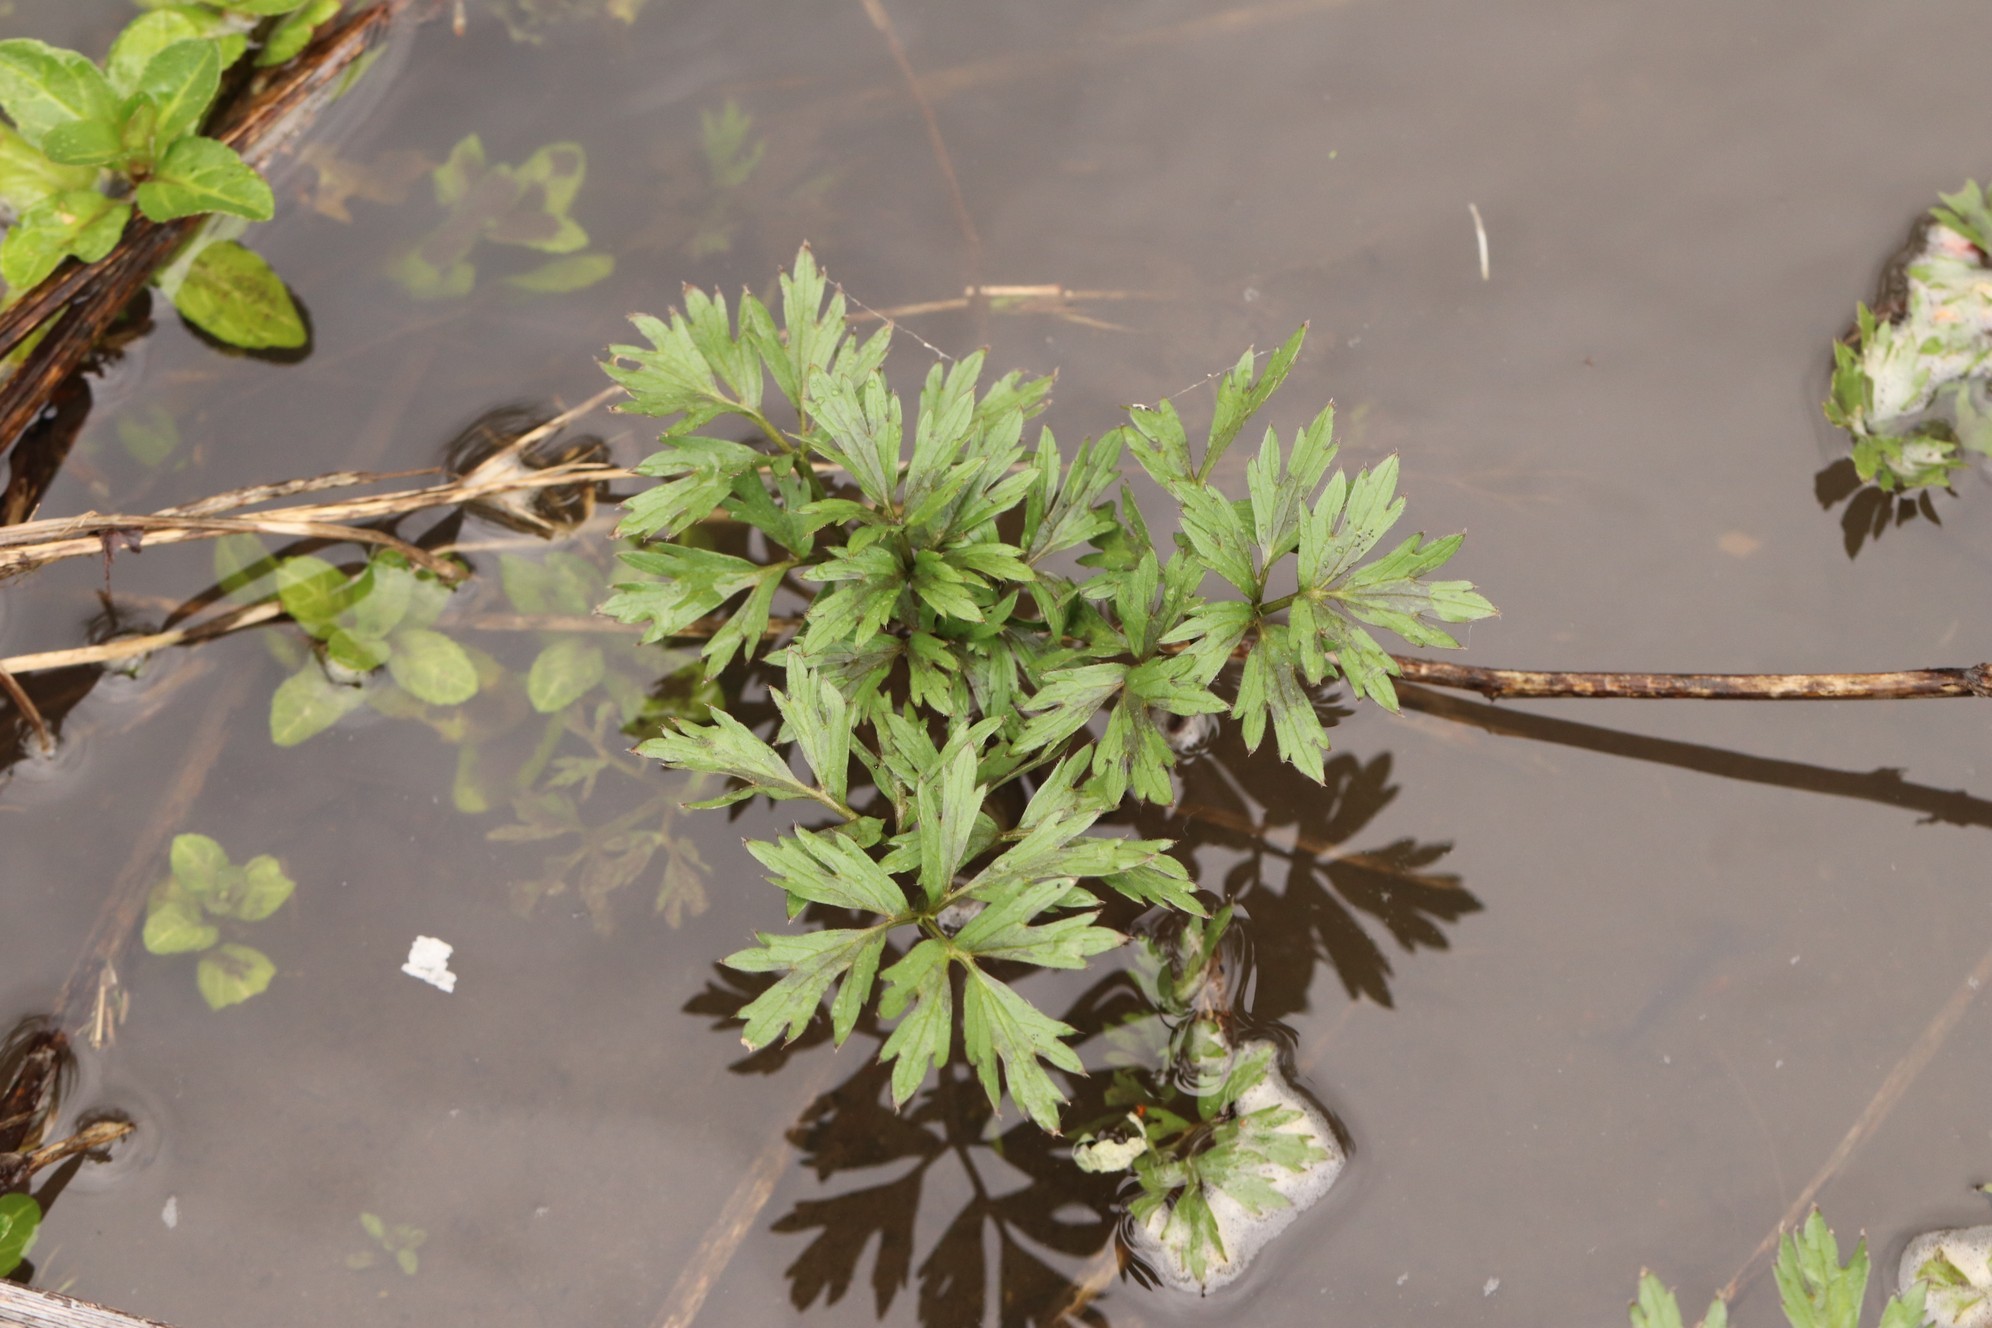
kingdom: Plantae
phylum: Tracheophyta
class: Magnoliopsida
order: Ranunculales
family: Ranunculaceae
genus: Ranunculus
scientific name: Ranunculus repens
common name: Creeping buttercup
